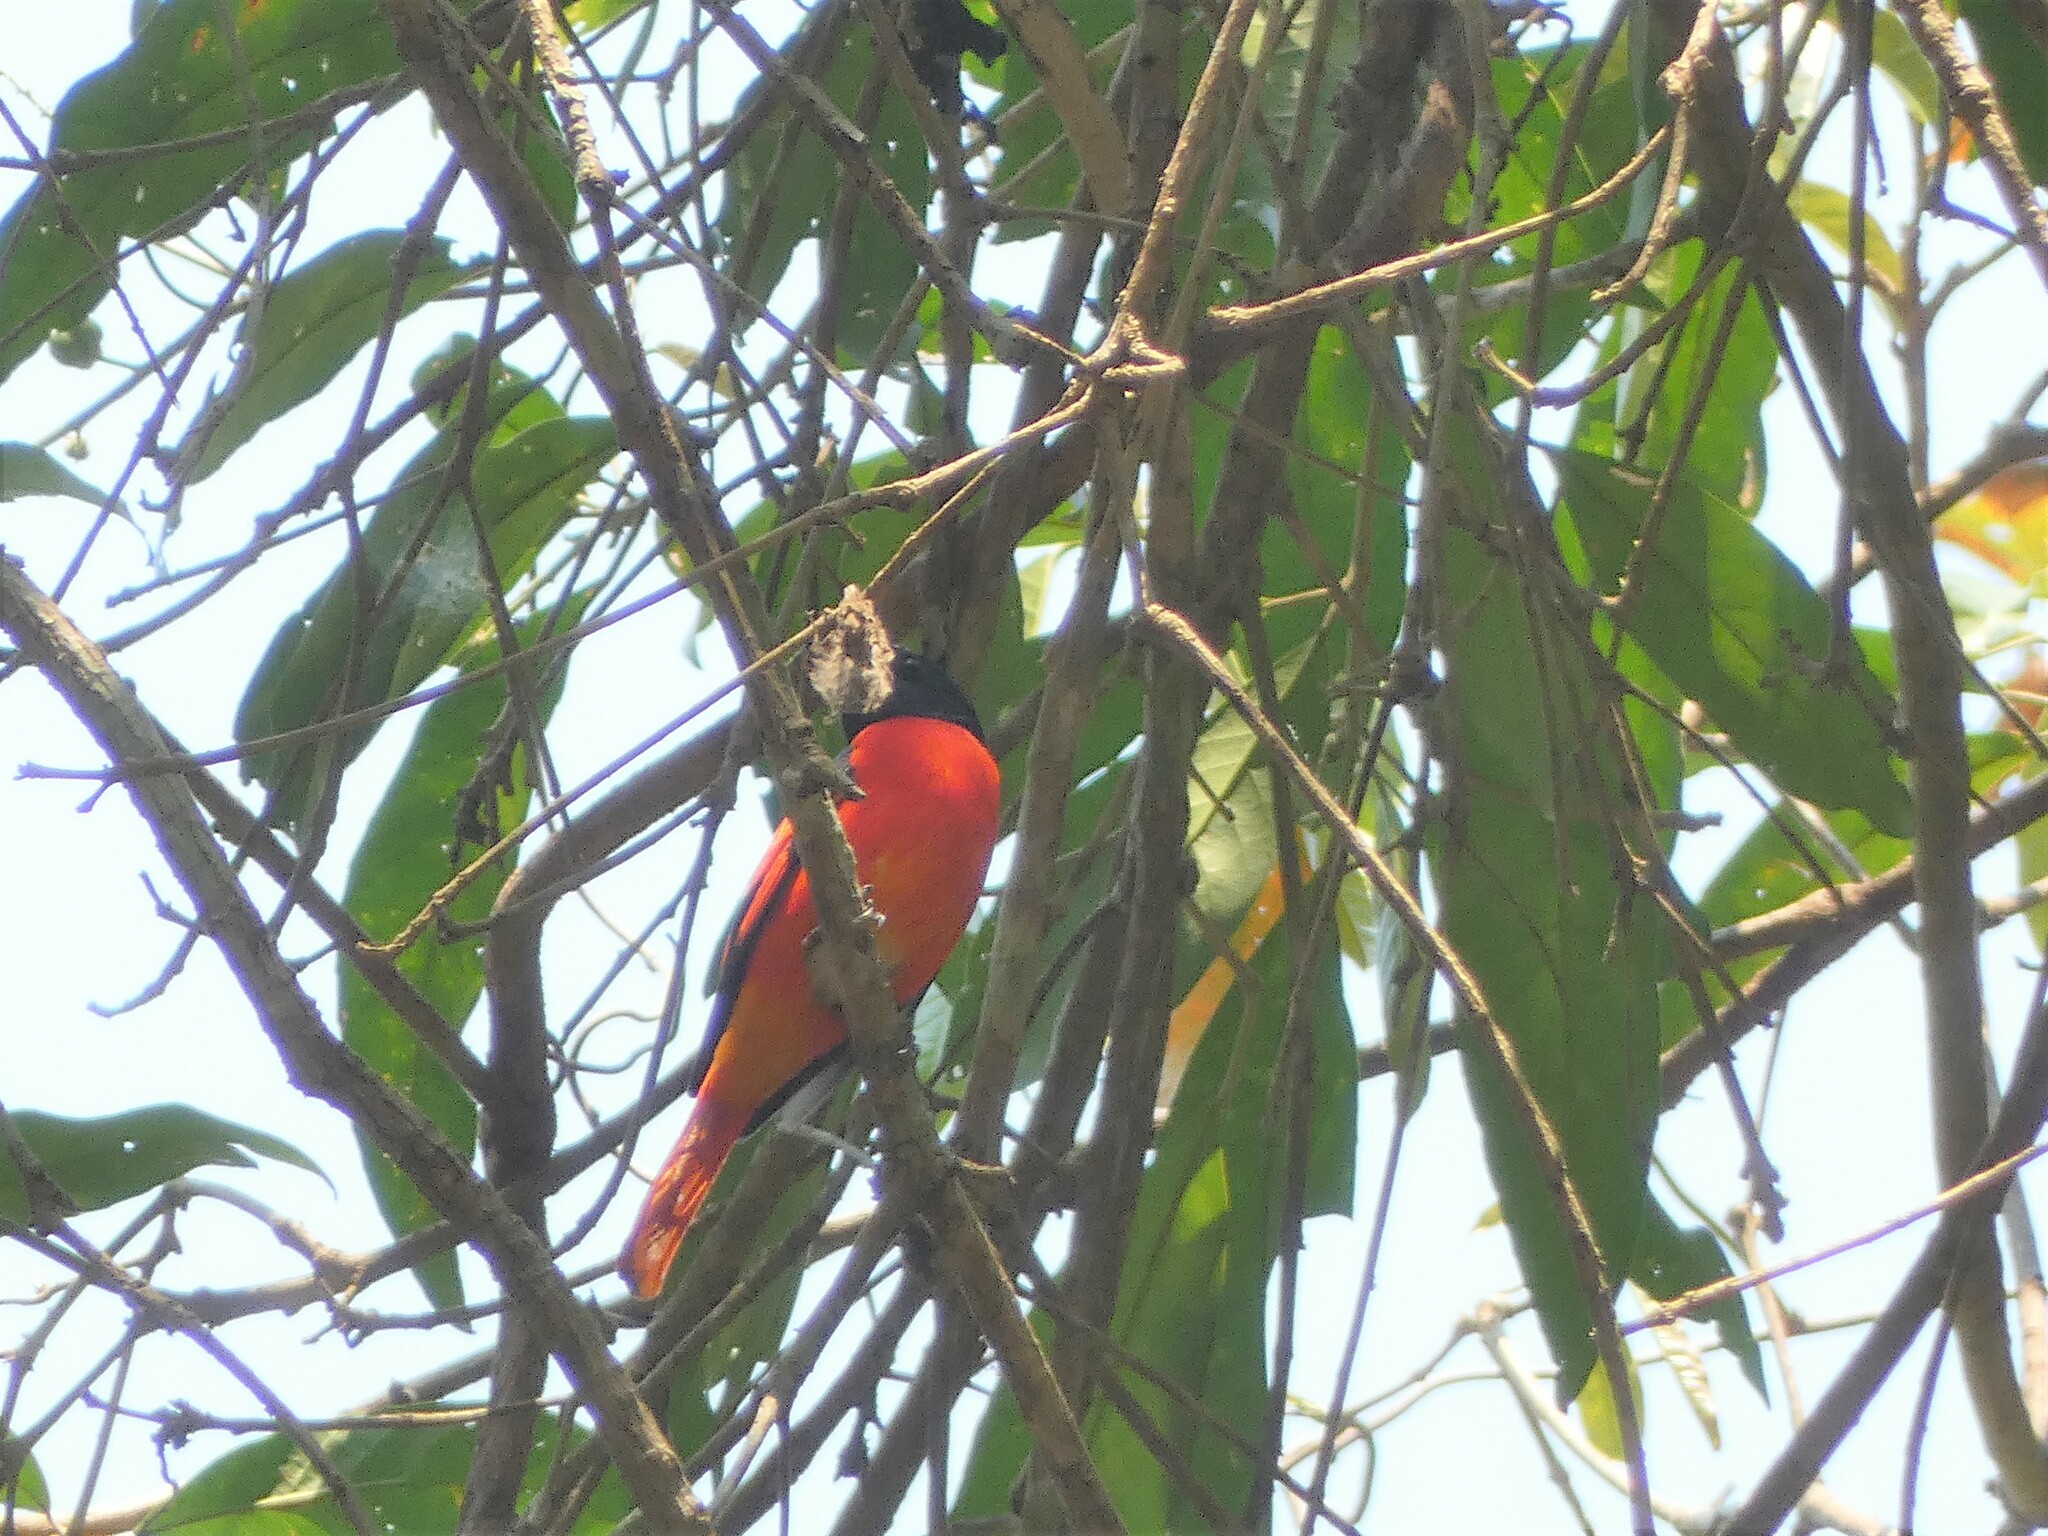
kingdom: Animalia
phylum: Chordata
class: Aves
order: Passeriformes
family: Campephagidae
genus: Pericrocotus
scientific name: Pericrocotus speciosus
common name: Scarlet minivet
